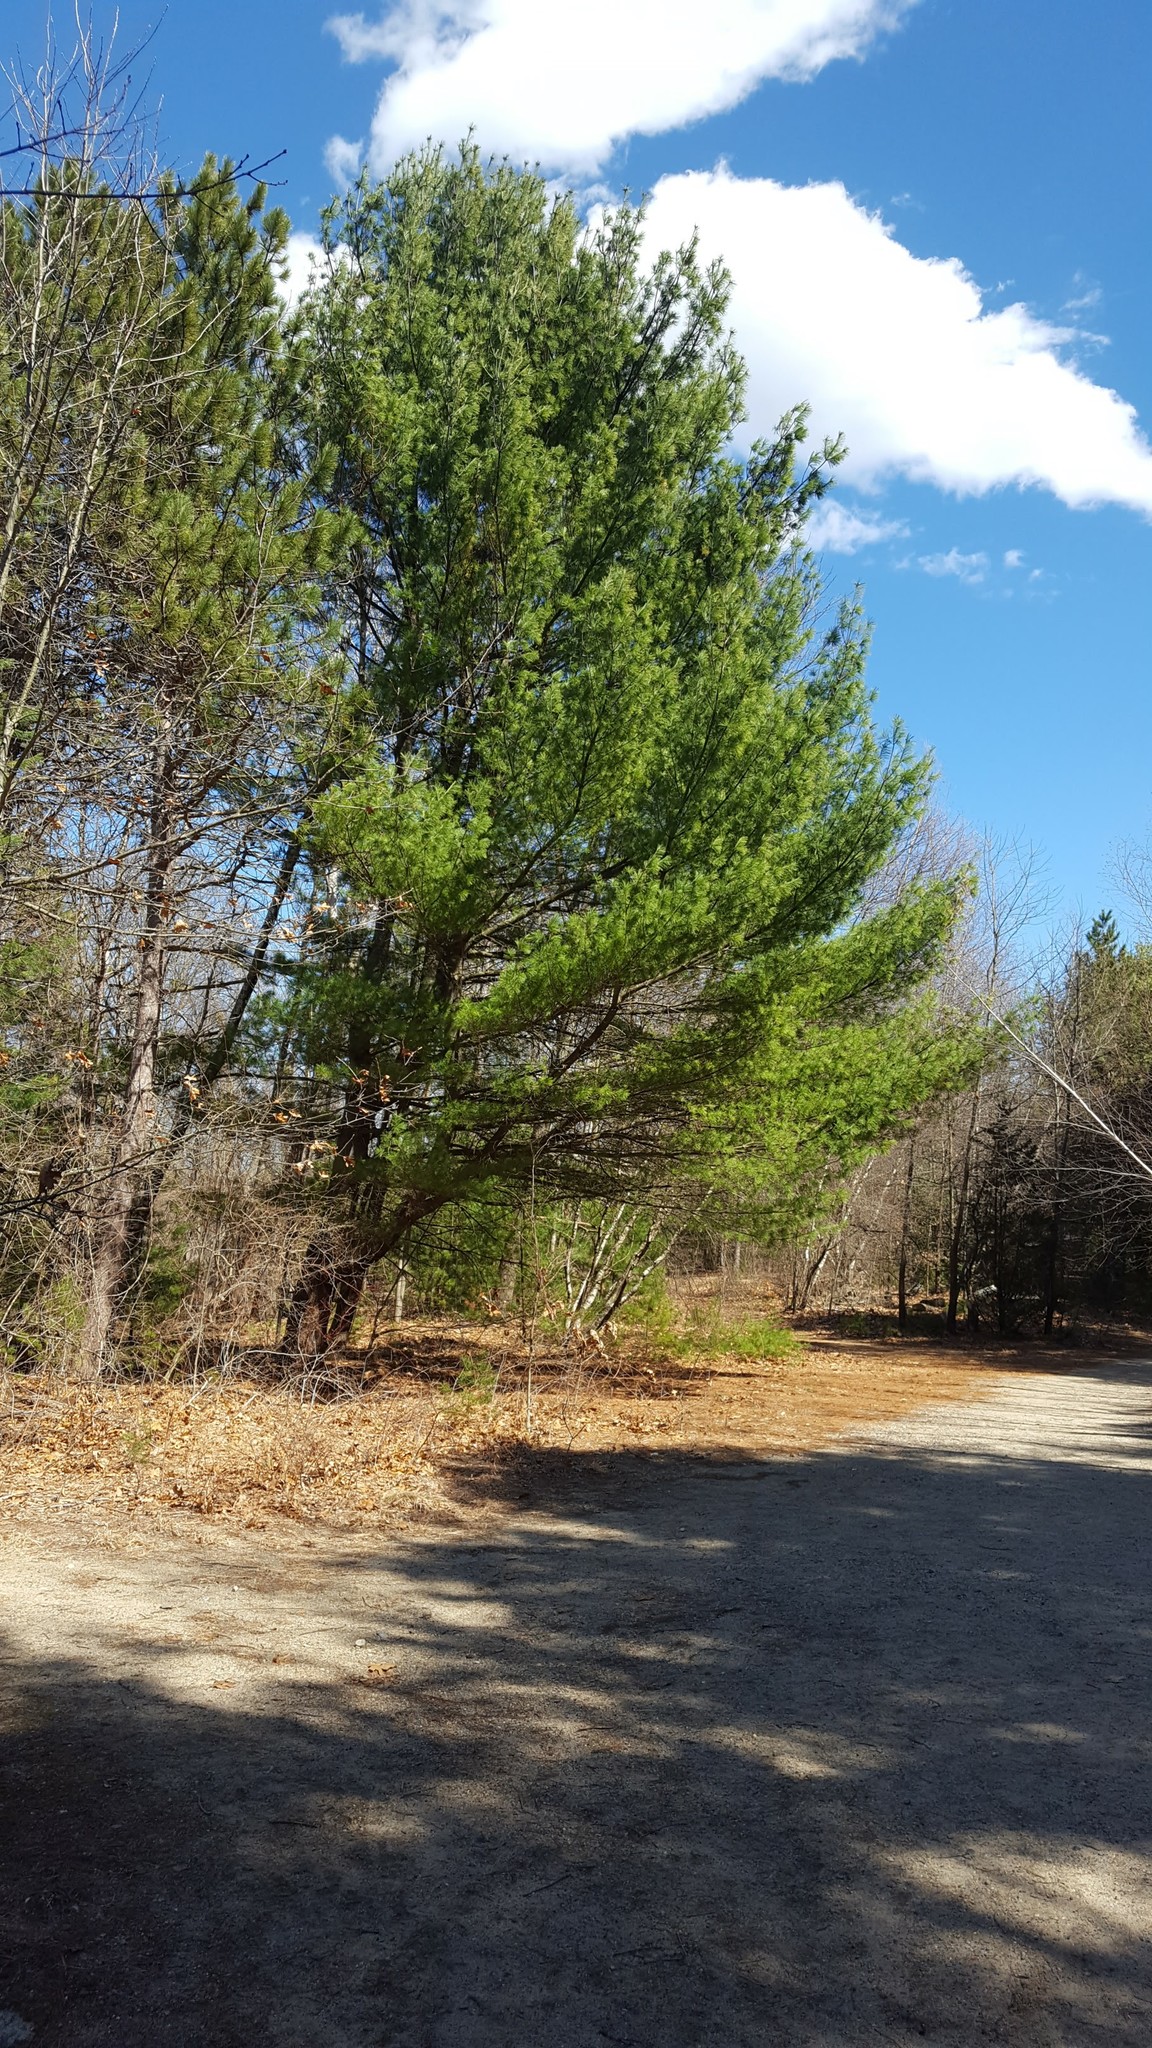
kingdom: Plantae
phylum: Tracheophyta
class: Pinopsida
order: Pinales
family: Pinaceae
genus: Pinus
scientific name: Pinus strobus
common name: Weymouth pine
